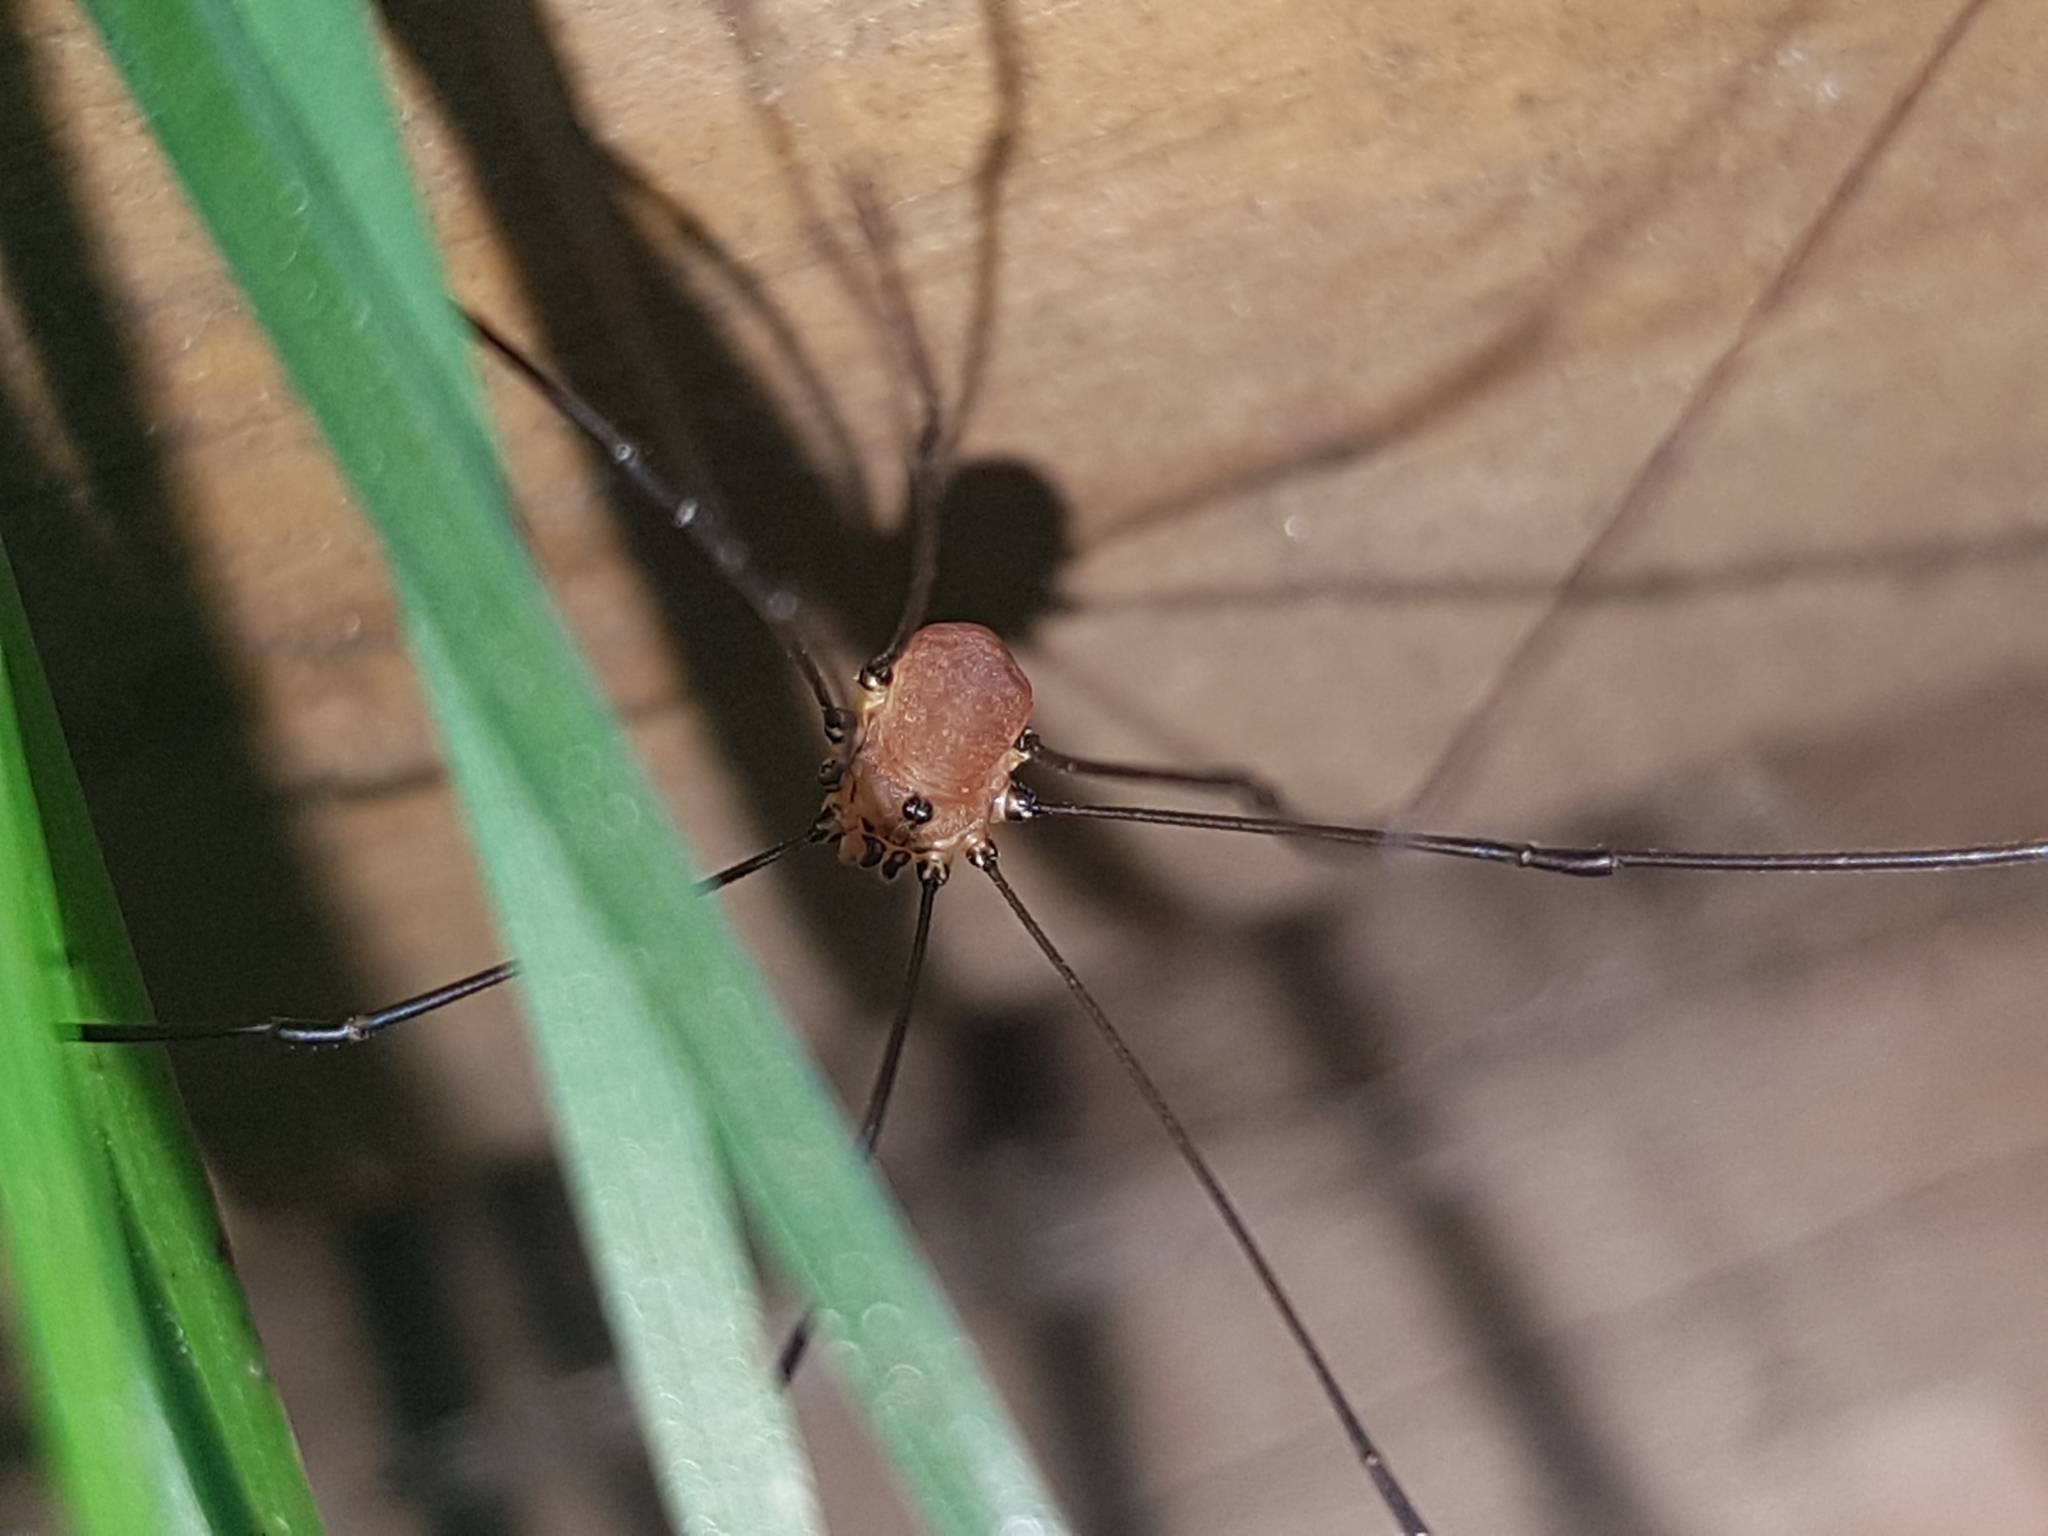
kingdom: Animalia
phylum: Arthropoda
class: Arachnida
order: Opiliones
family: Sclerosomatidae
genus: Leiobunum
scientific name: Leiobunum rotundum
